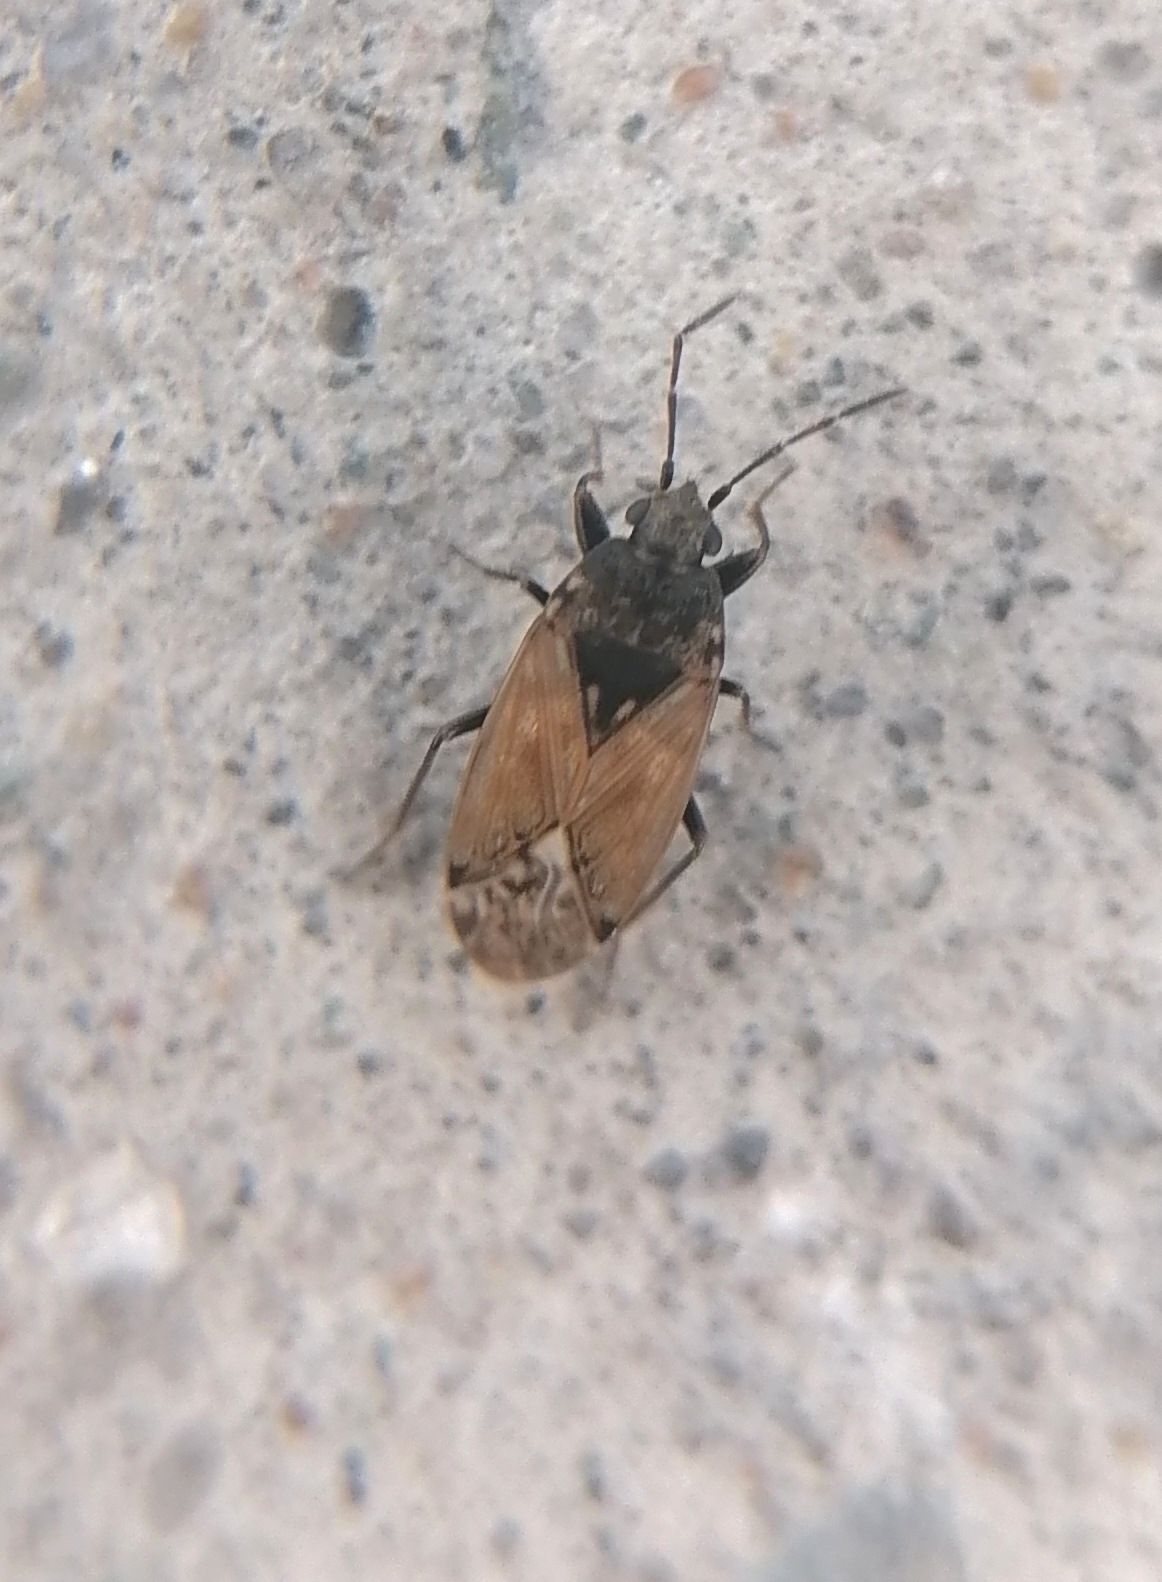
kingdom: Animalia
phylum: Arthropoda
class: Insecta
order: Hemiptera
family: Rhyparochromidae
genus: Peritrechus
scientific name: Peritrechus convivus
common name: Seed bug
